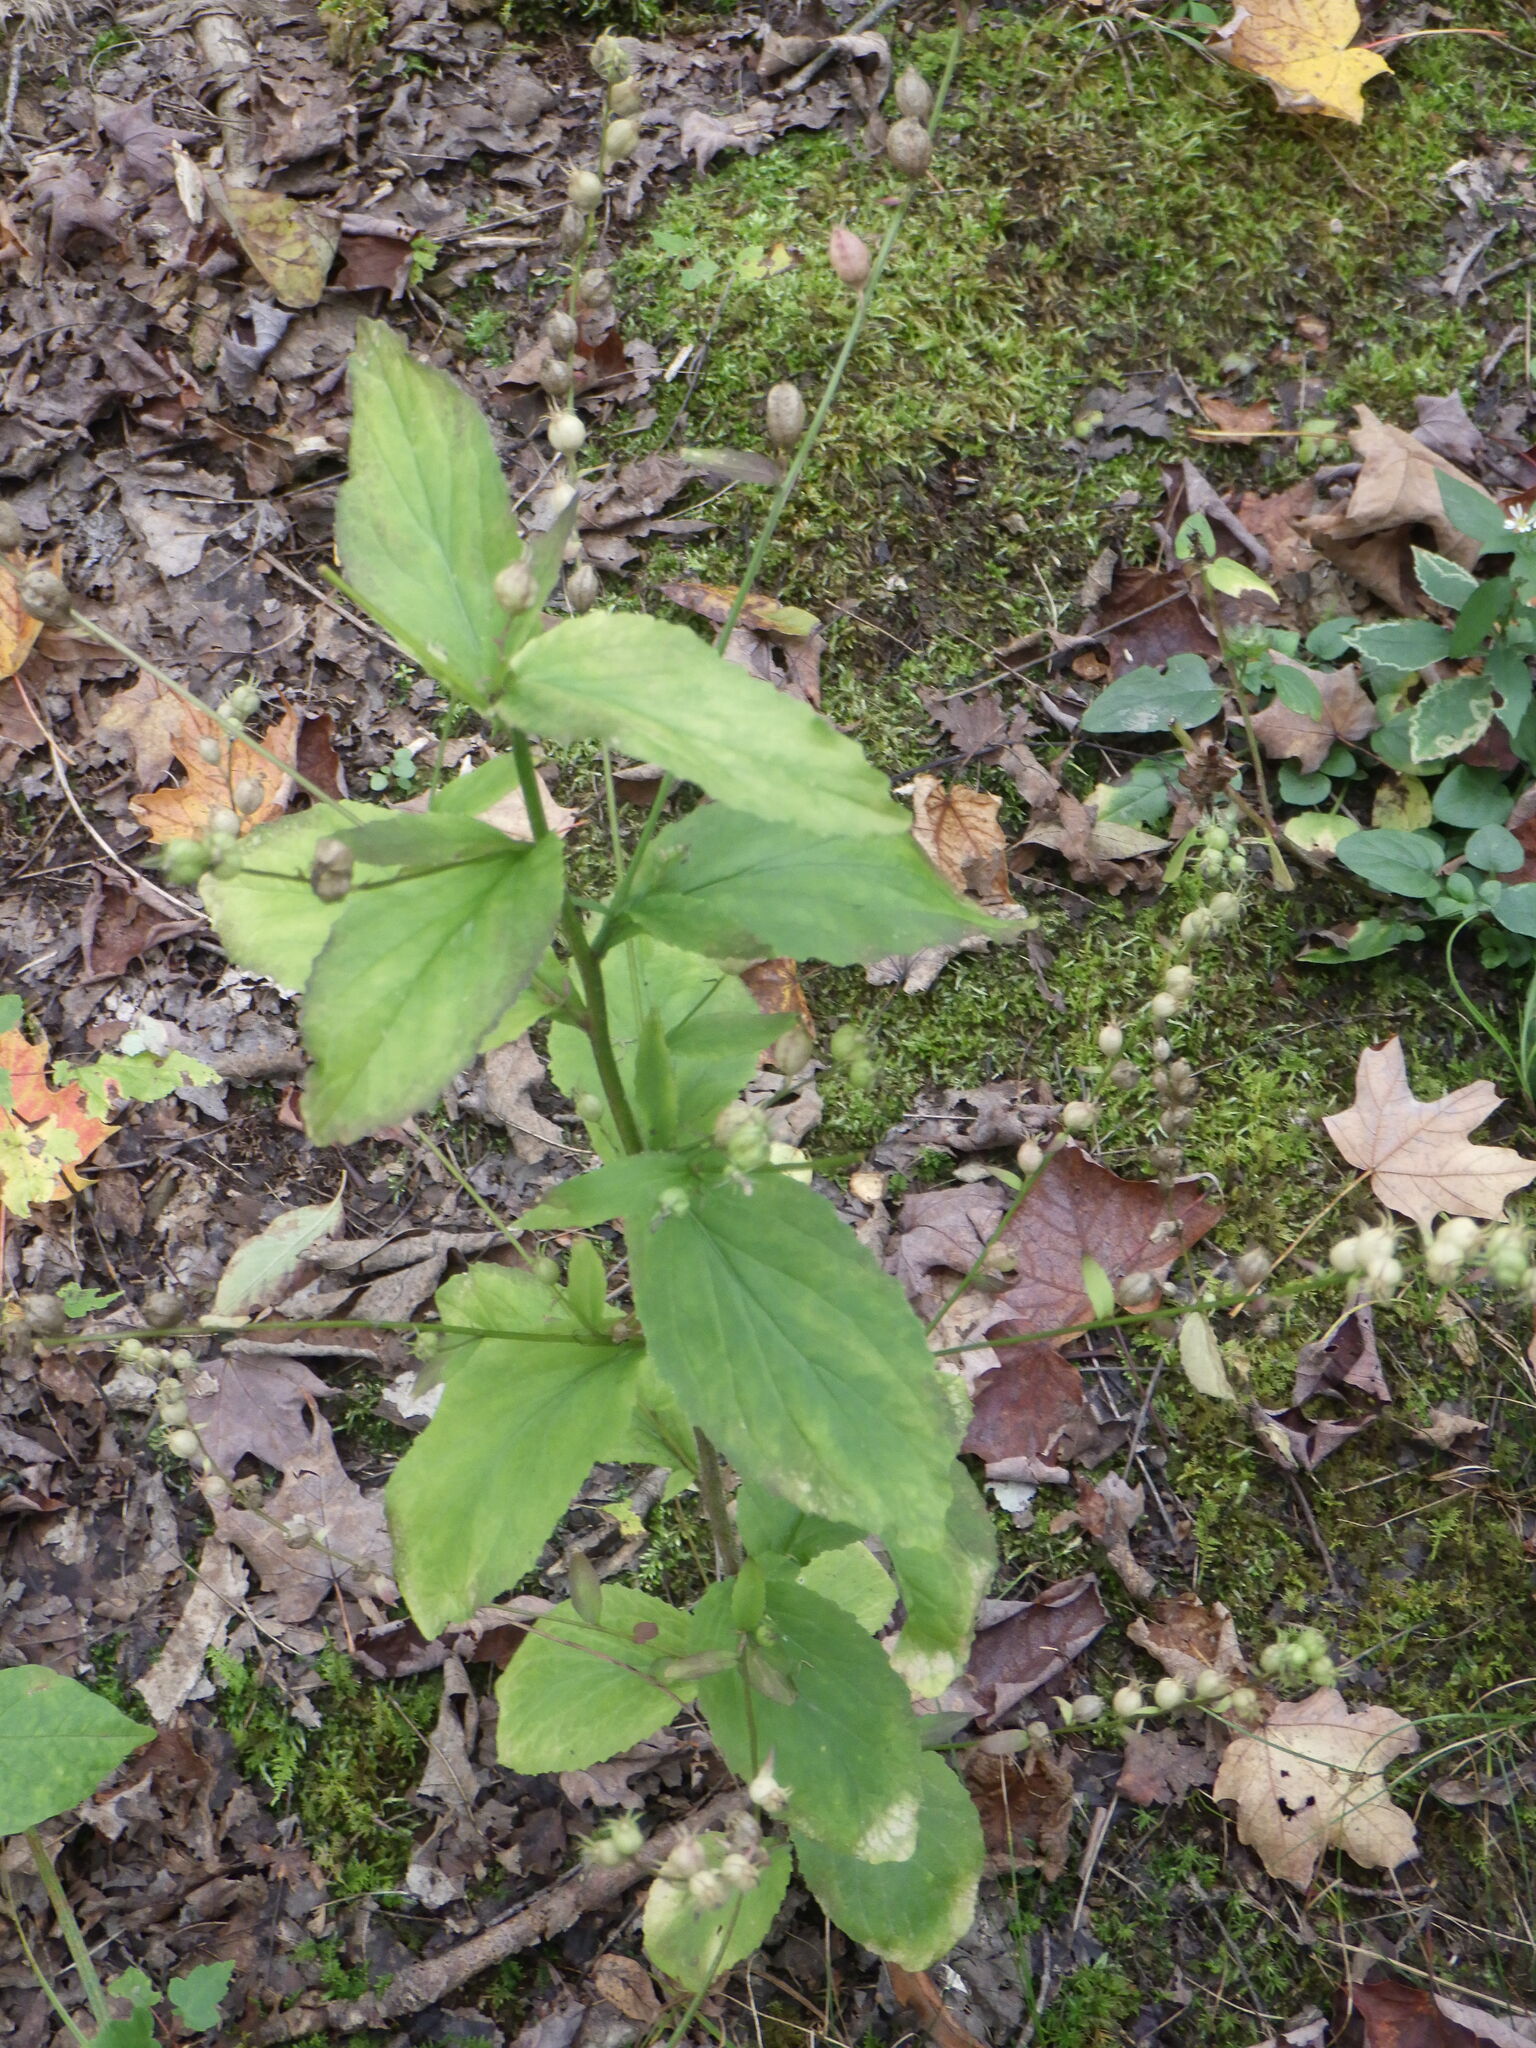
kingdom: Plantae
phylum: Tracheophyta
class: Magnoliopsida
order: Asterales
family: Campanulaceae
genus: Lobelia
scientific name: Lobelia inflata
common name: Indian tobacco
